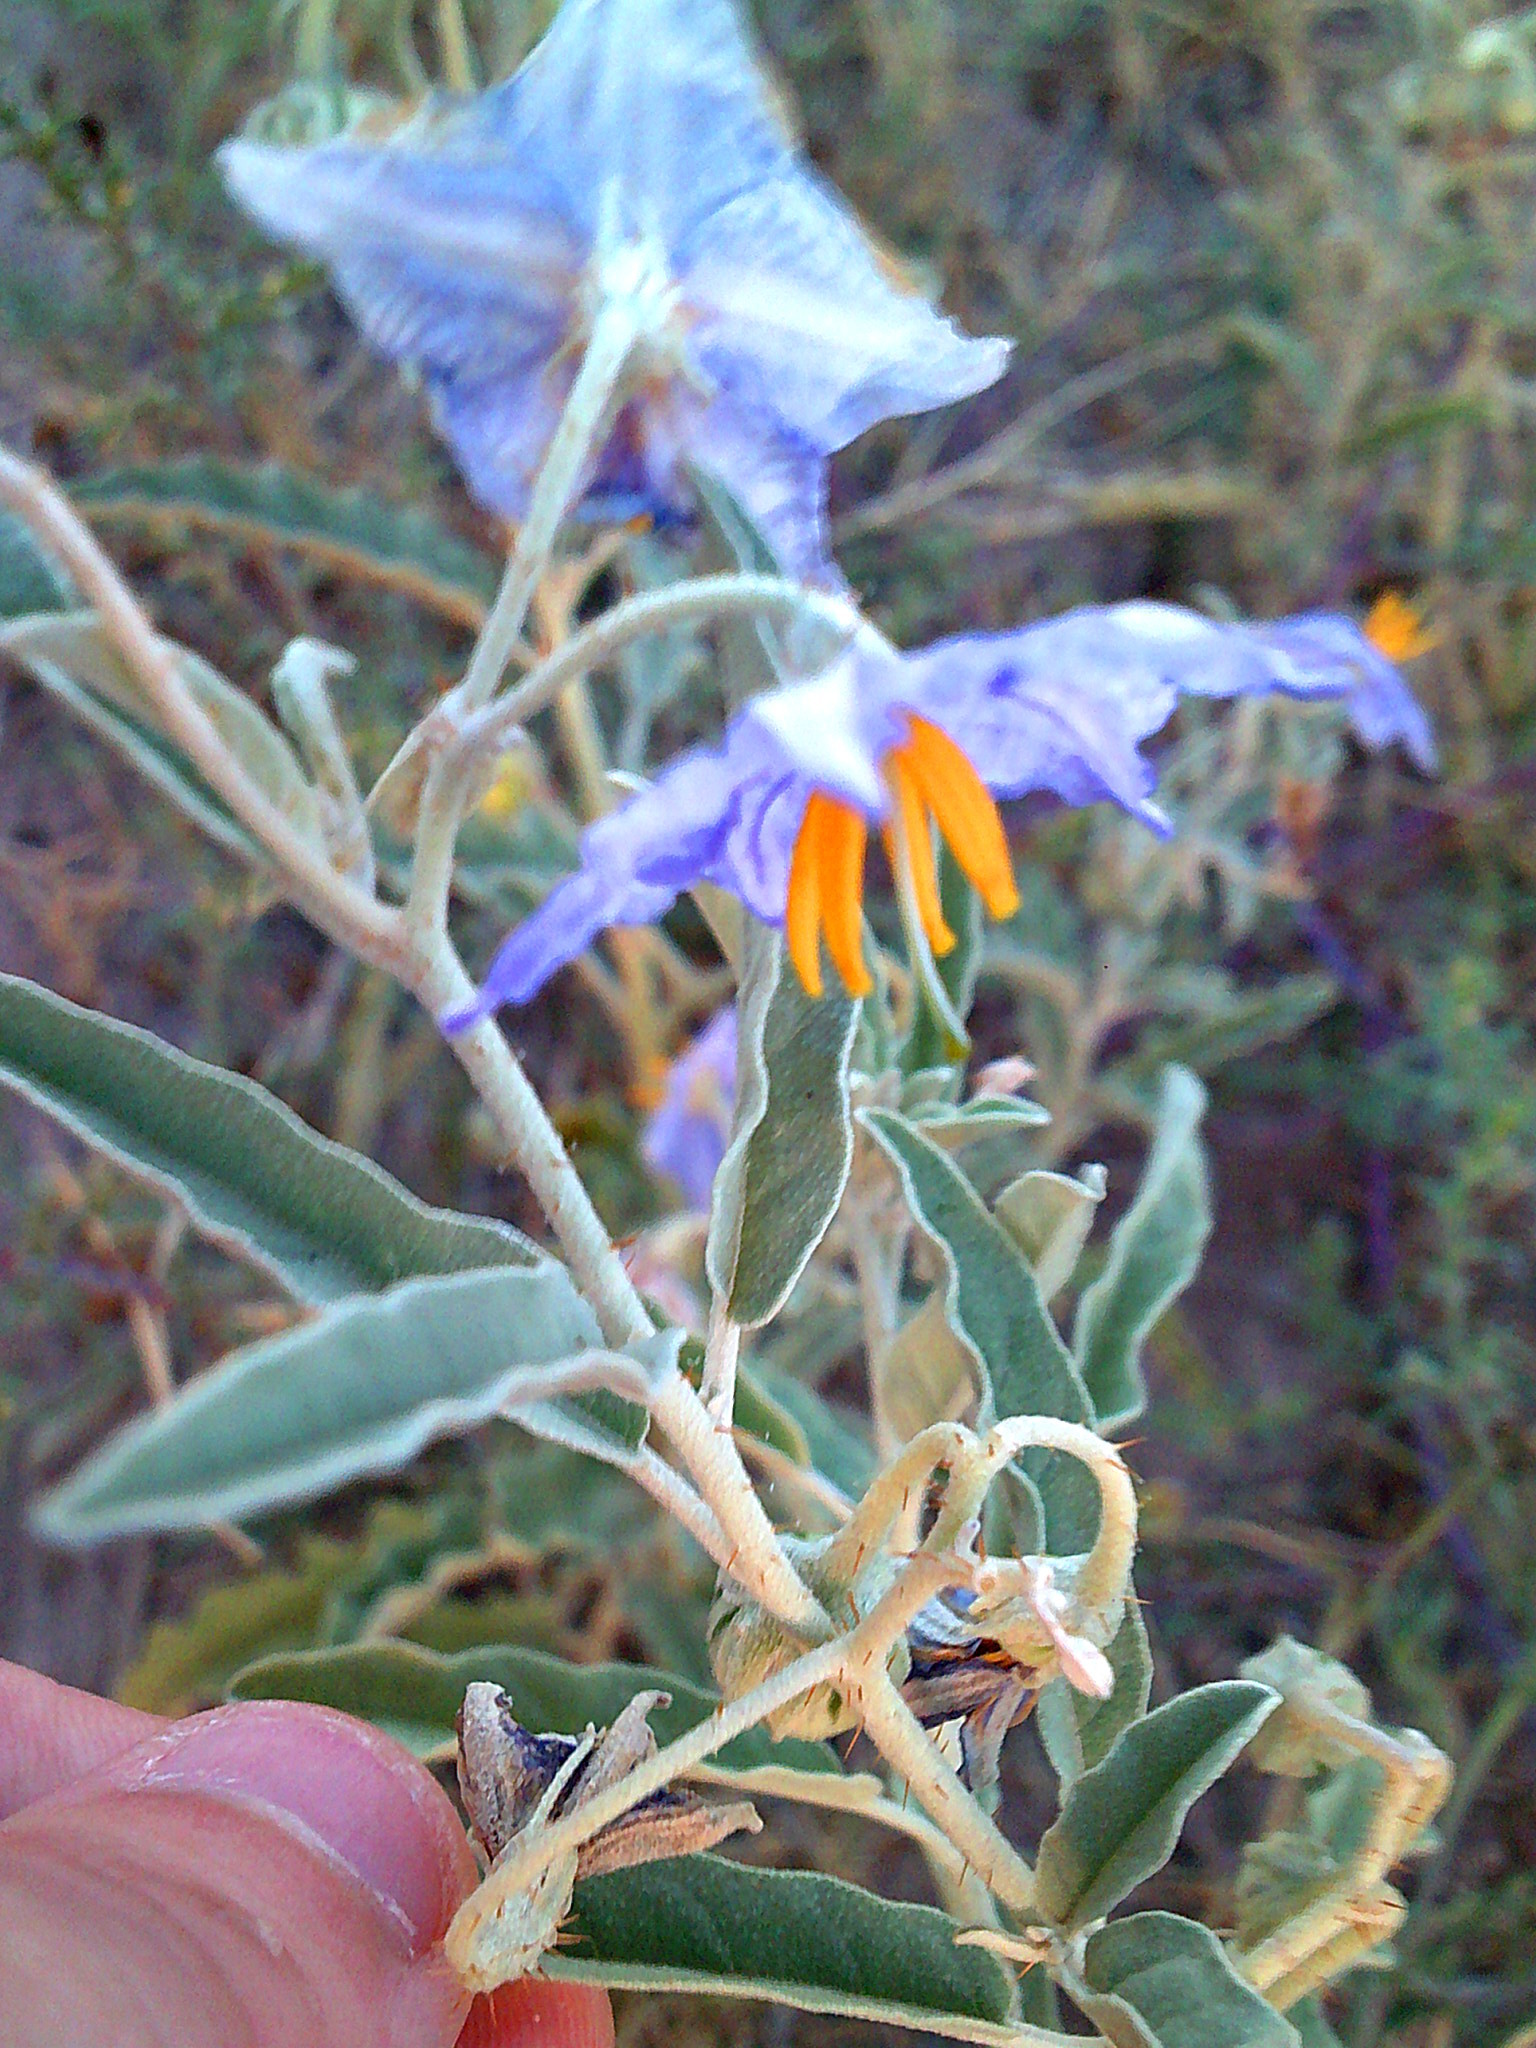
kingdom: Plantae
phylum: Tracheophyta
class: Magnoliopsida
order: Solanales
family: Solanaceae
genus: Solanum
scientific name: Solanum elaeagnifolium
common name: Silverleaf nightshade
